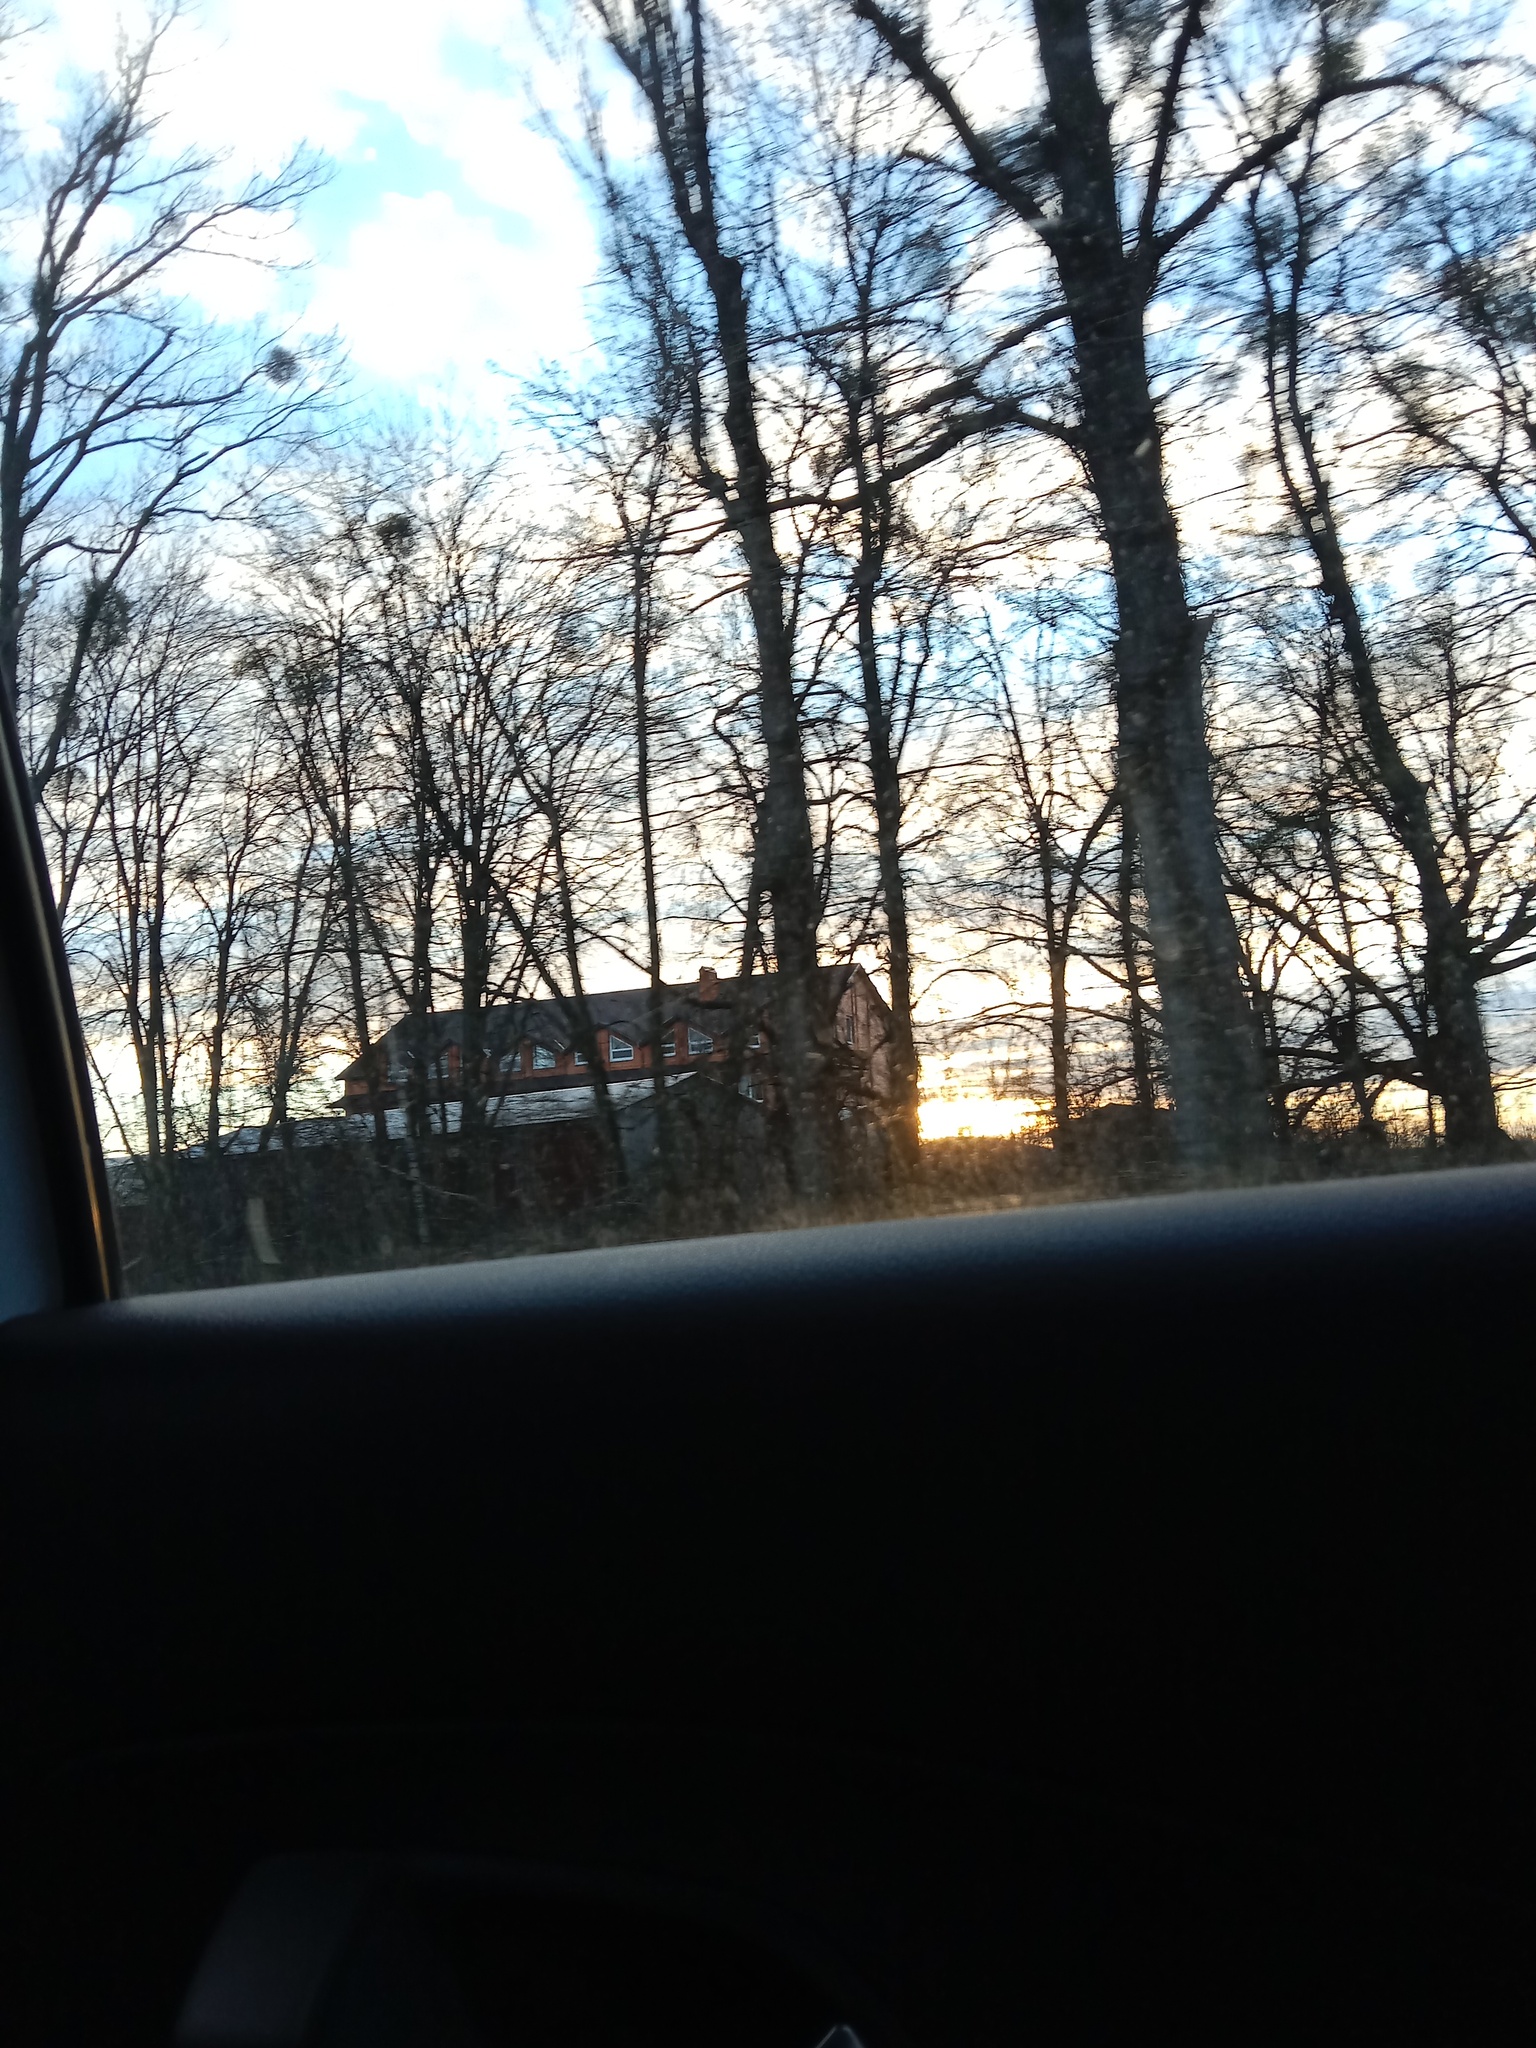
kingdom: Plantae
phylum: Tracheophyta
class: Magnoliopsida
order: Santalales
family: Viscaceae
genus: Viscum
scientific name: Viscum album
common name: Mistletoe
